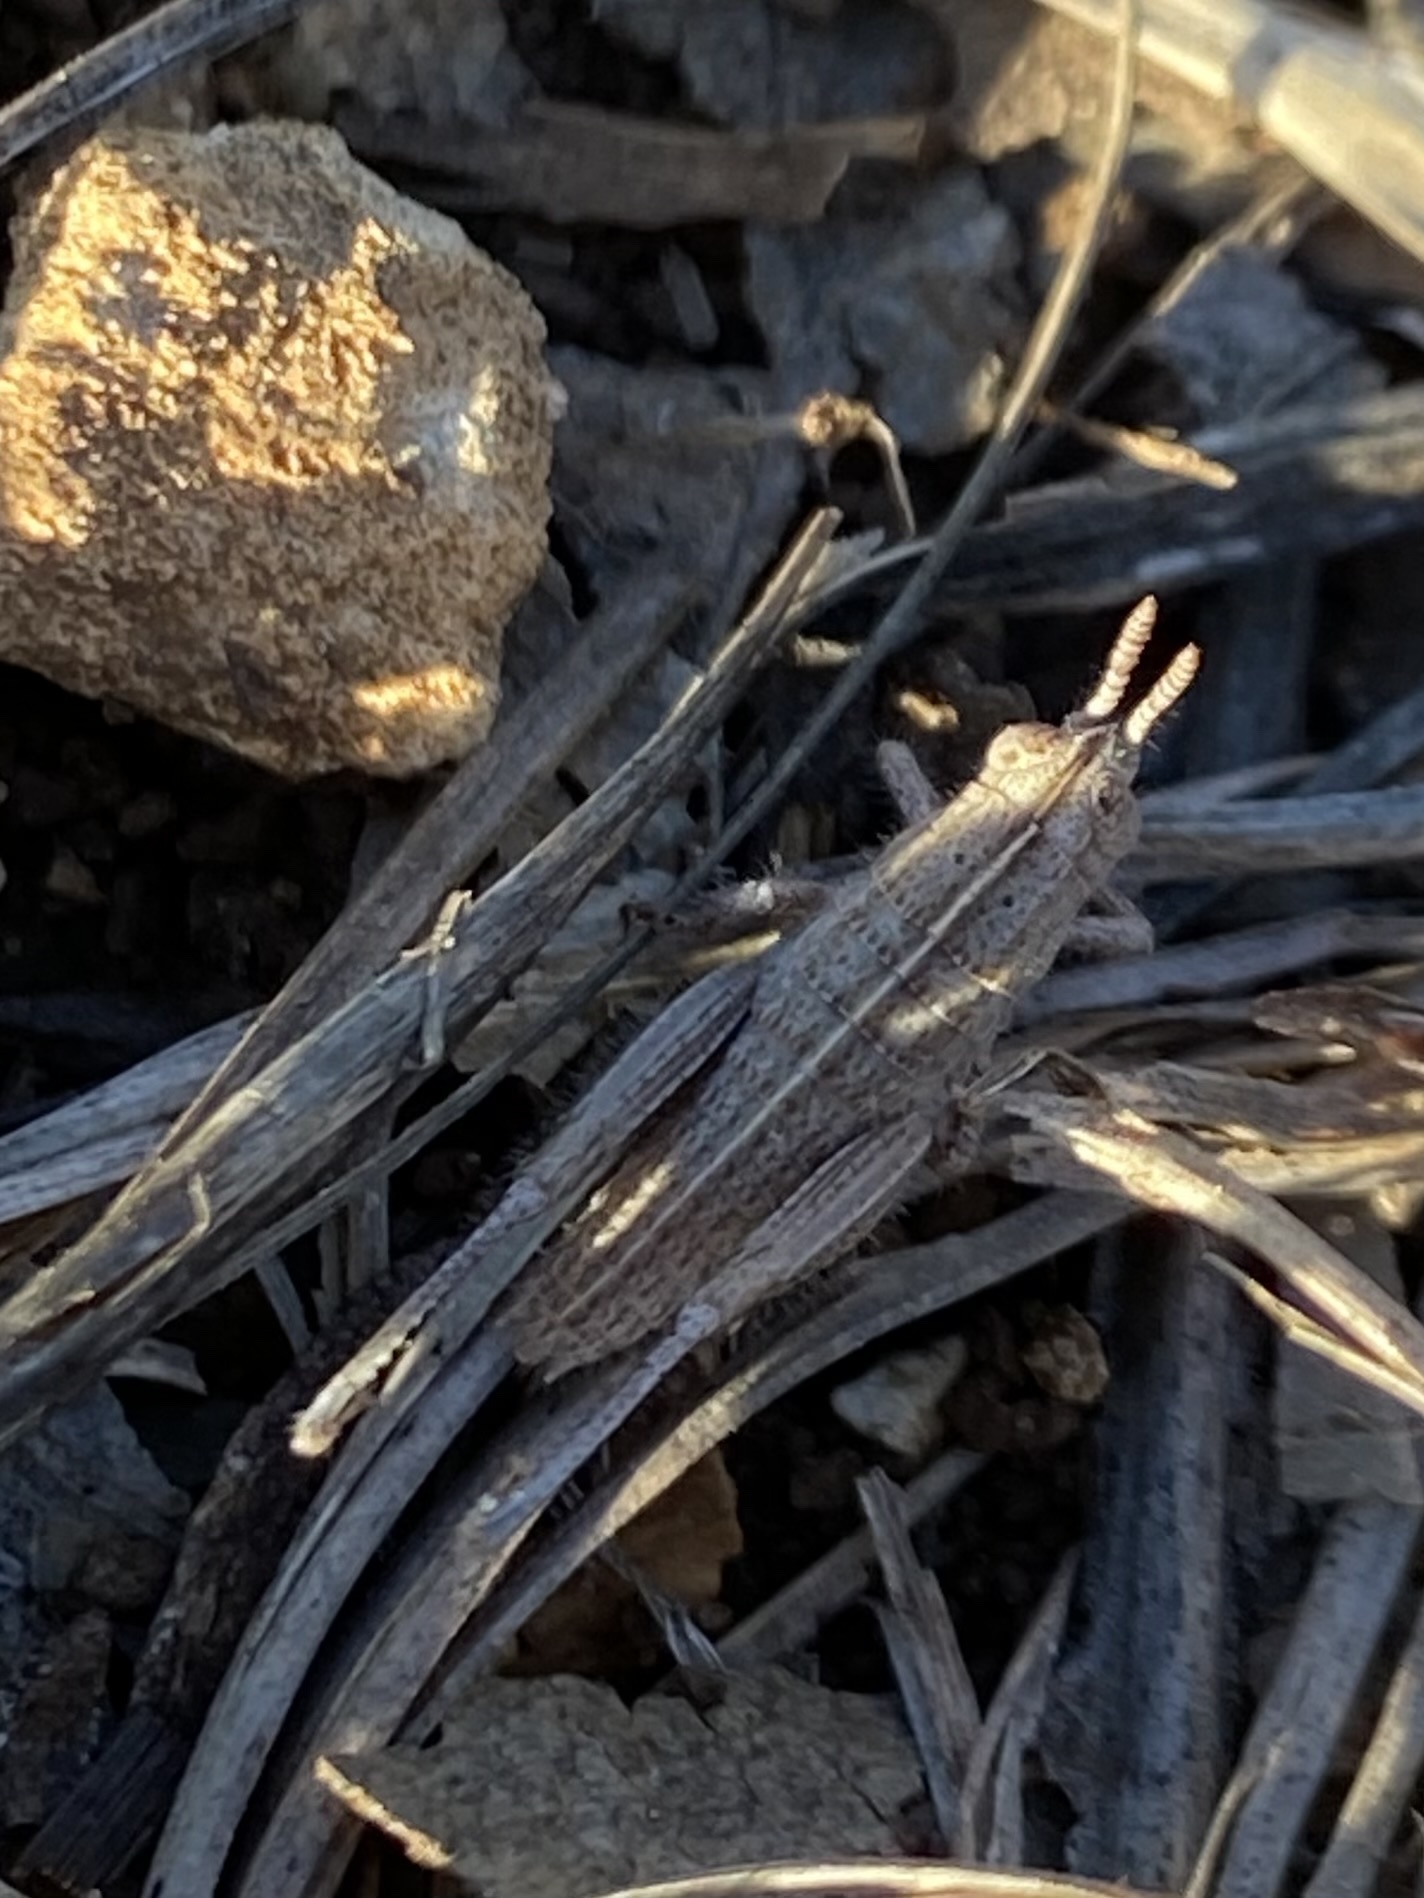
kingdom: Animalia
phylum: Arthropoda
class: Insecta
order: Orthoptera
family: Acrididae
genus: Paratylotropidia
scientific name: Paratylotropidia brunneri
